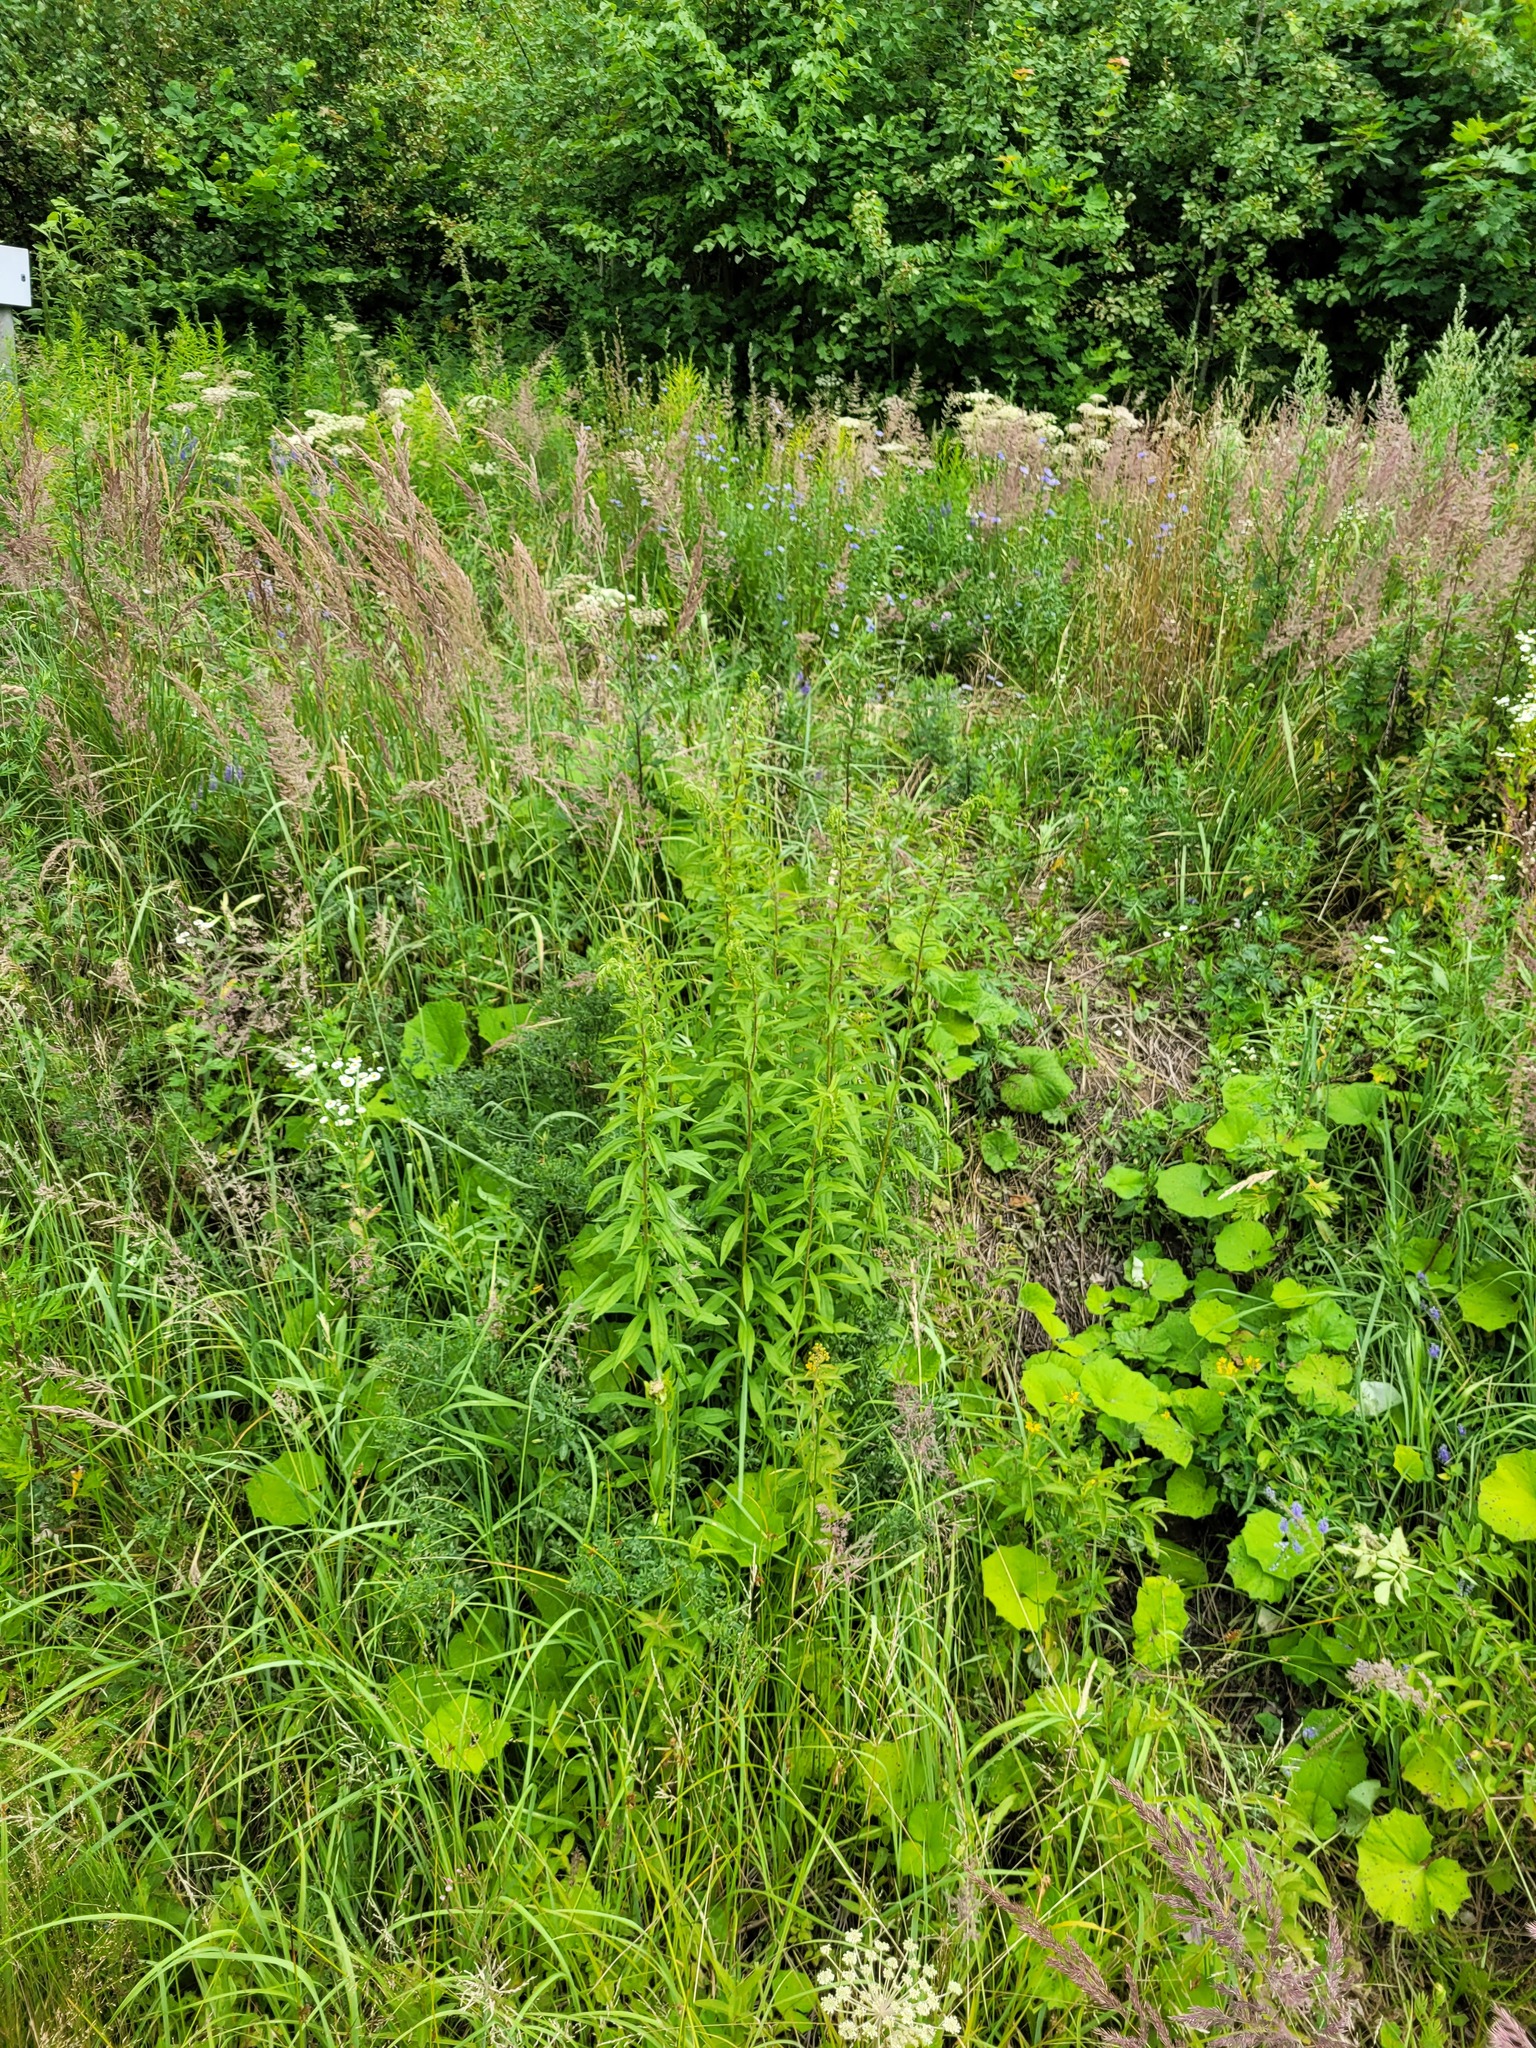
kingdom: Plantae
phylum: Tracheophyta
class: Magnoliopsida
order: Asterales
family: Asteraceae
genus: Solidago
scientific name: Solidago canadensis
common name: Canada goldenrod
